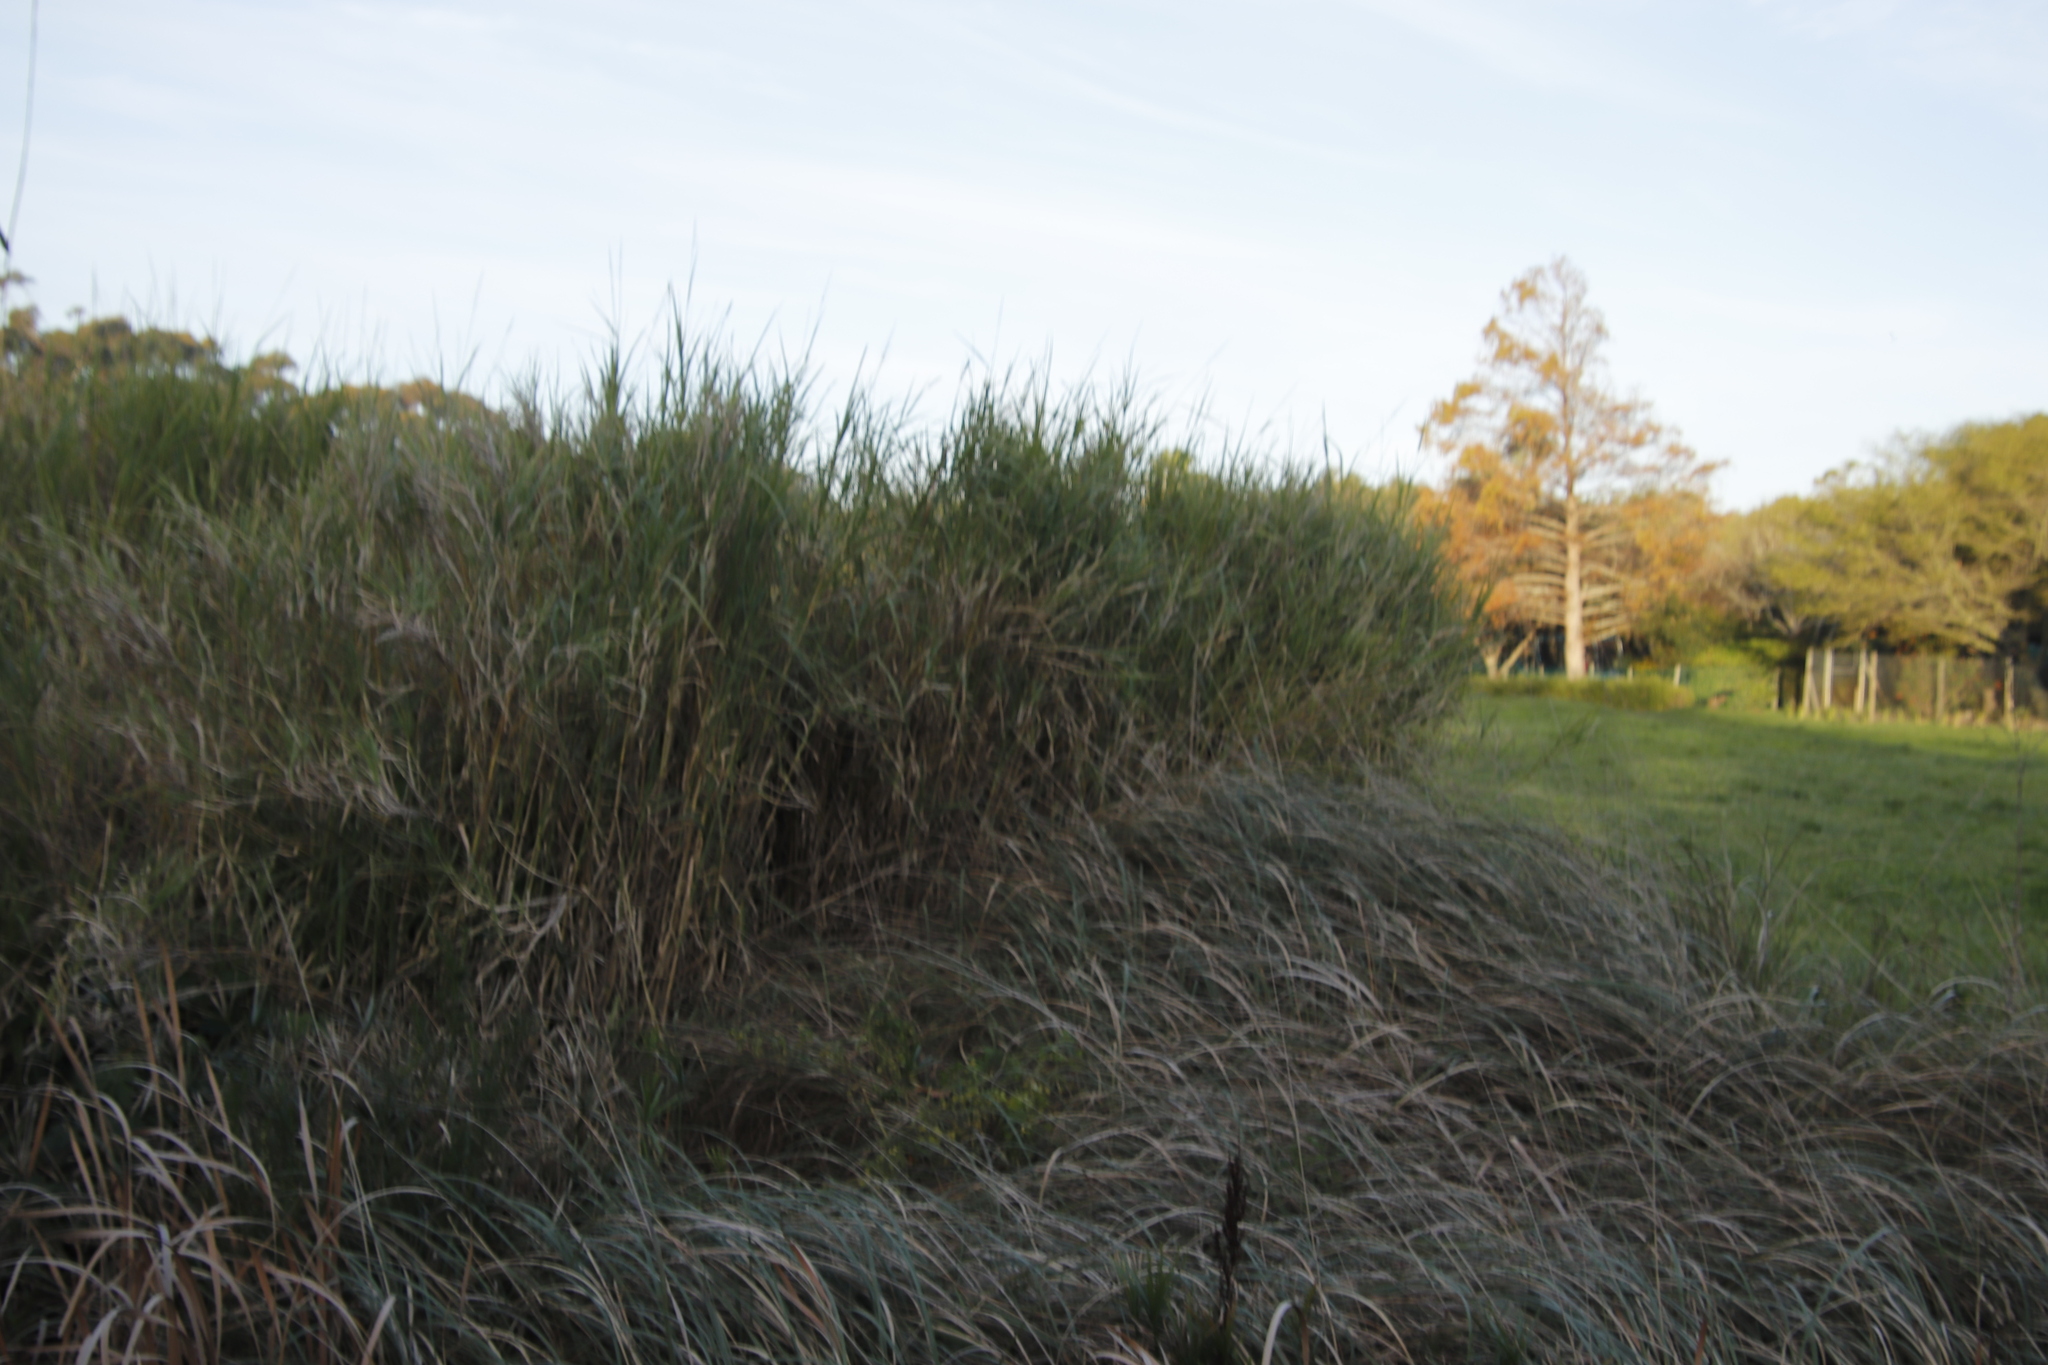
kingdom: Plantae
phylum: Tracheophyta
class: Liliopsida
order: Poales
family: Poaceae
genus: Echinochloa
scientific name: Echinochloa pyramidalis
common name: Antelope grass
